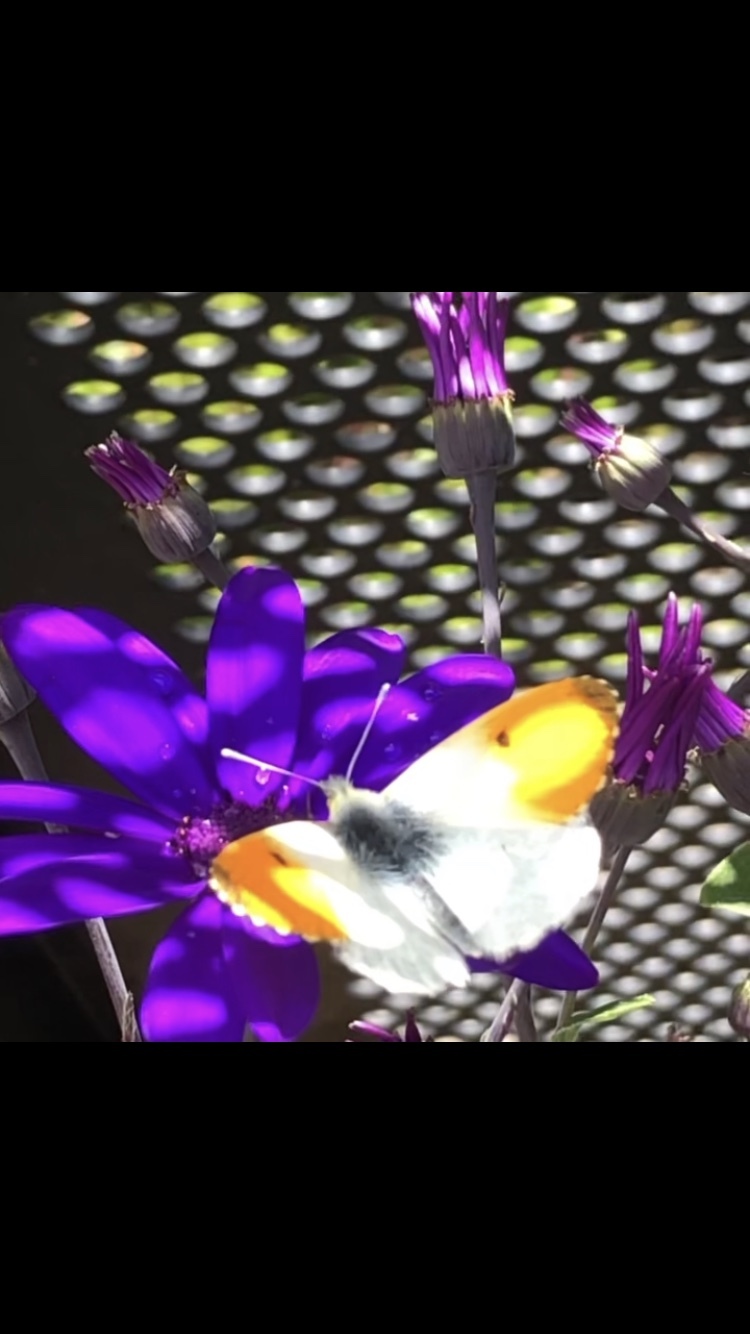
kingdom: Animalia
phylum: Arthropoda
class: Insecta
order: Lepidoptera
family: Pieridae
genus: Anthocharis
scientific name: Anthocharis cardamines
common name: Orange-tip
